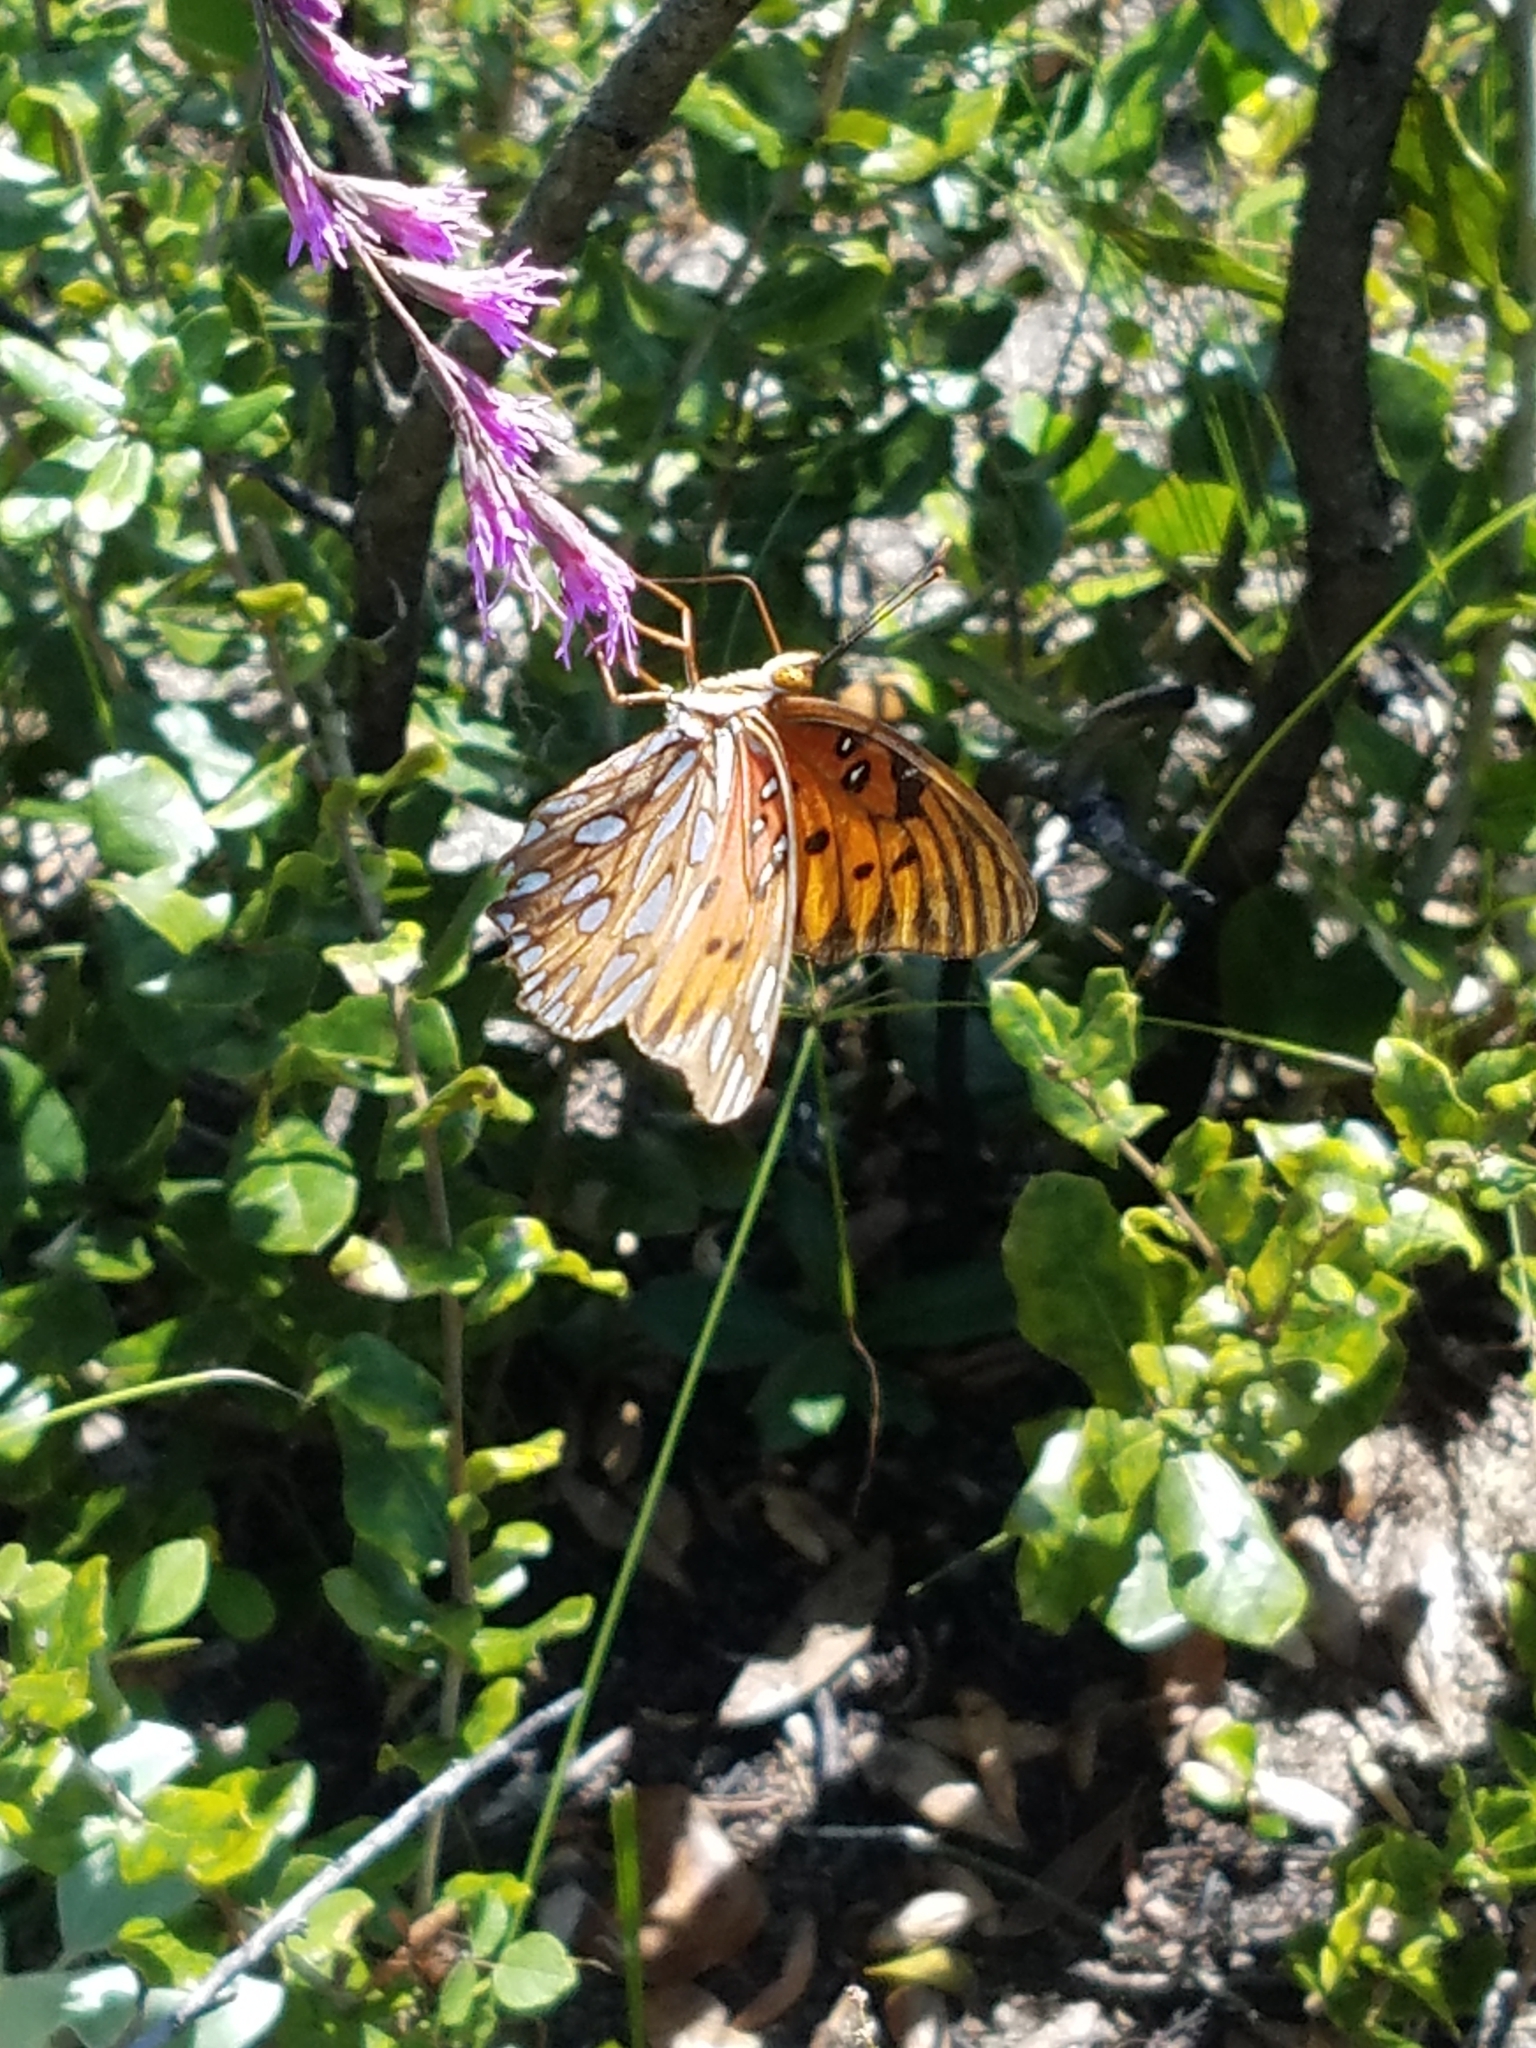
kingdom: Animalia
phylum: Arthropoda
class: Insecta
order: Lepidoptera
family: Nymphalidae
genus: Dione
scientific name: Dione vanillae
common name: Gulf fritillary
